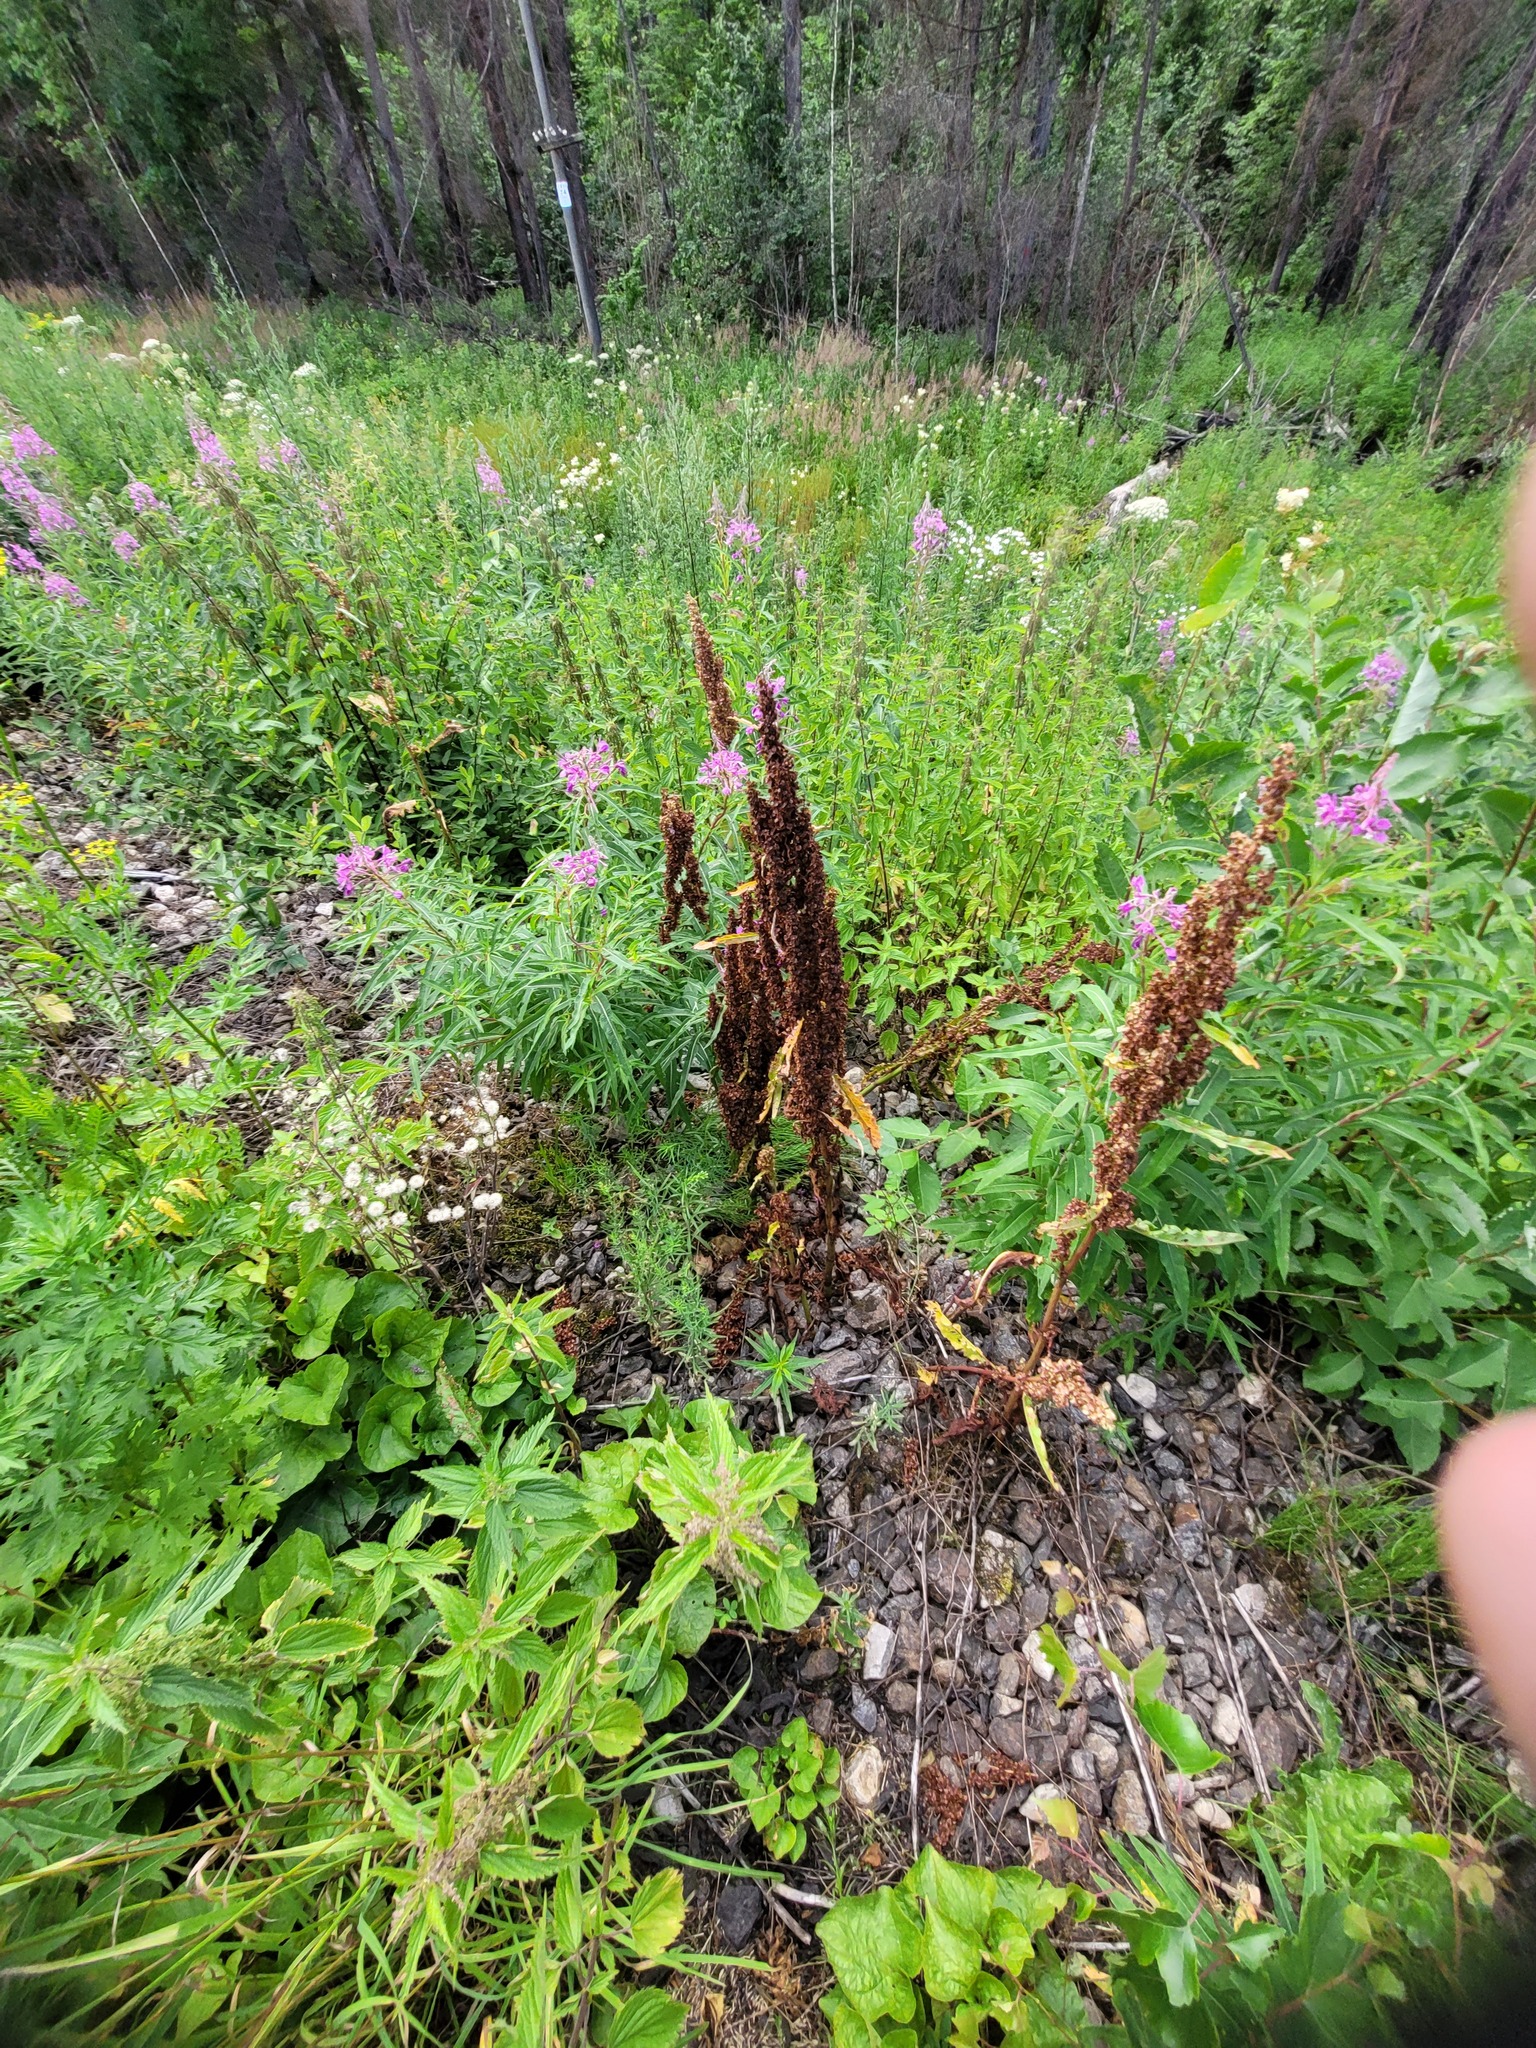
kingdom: Plantae
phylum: Tracheophyta
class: Magnoliopsida
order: Caryophyllales
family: Polygonaceae
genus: Rumex
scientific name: Rumex longifolius
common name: Dooryard dock
